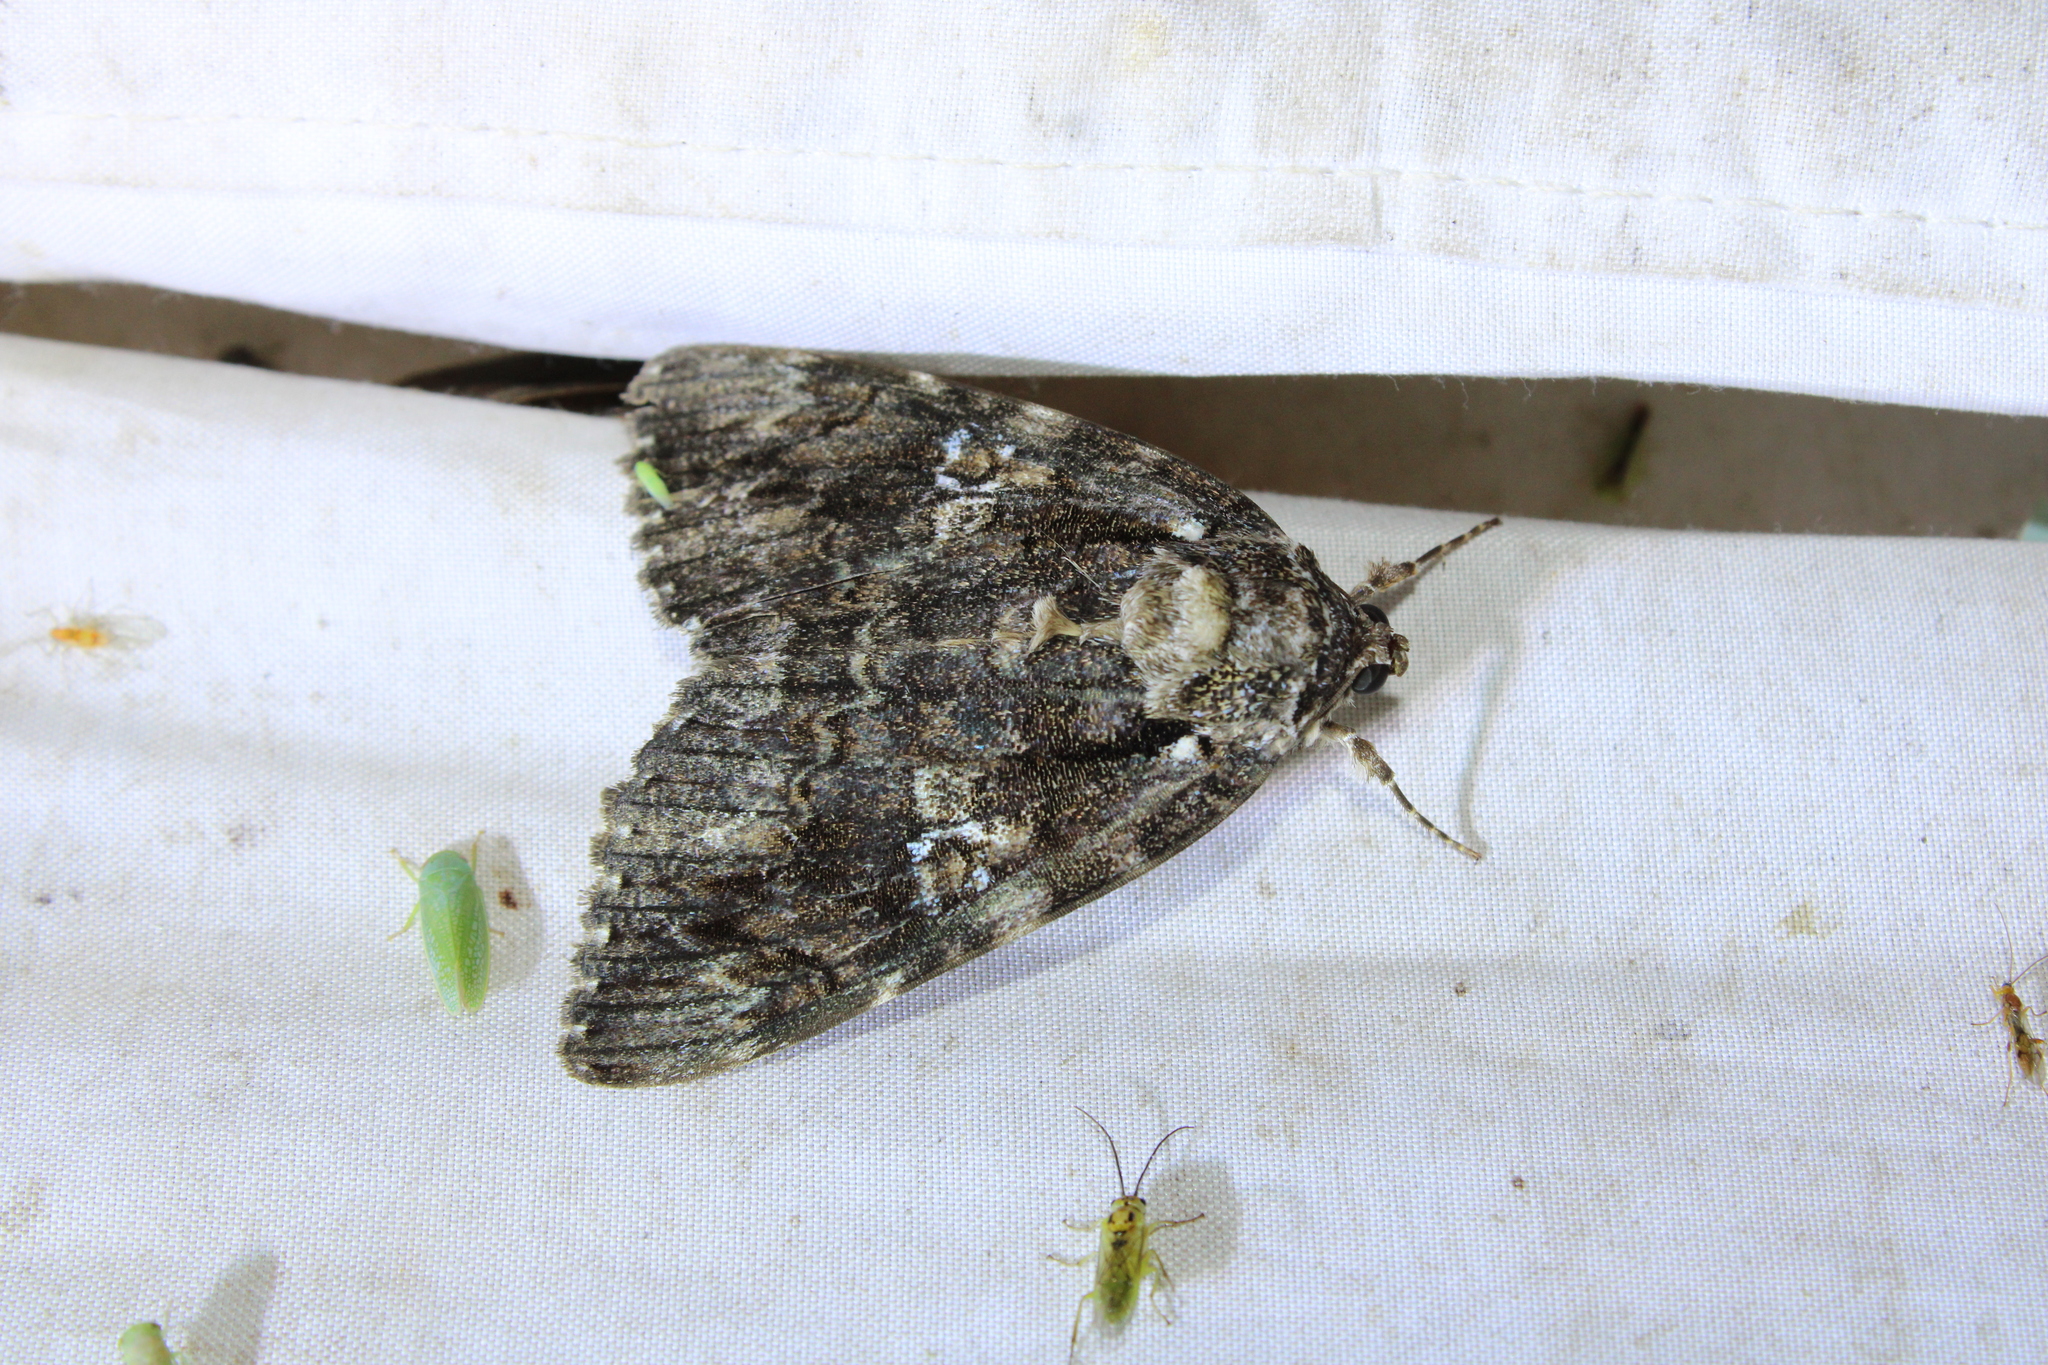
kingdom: Animalia
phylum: Arthropoda
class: Insecta
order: Lepidoptera
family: Erebidae
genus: Catocala
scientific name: Catocala ilia
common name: Ilia underwing
